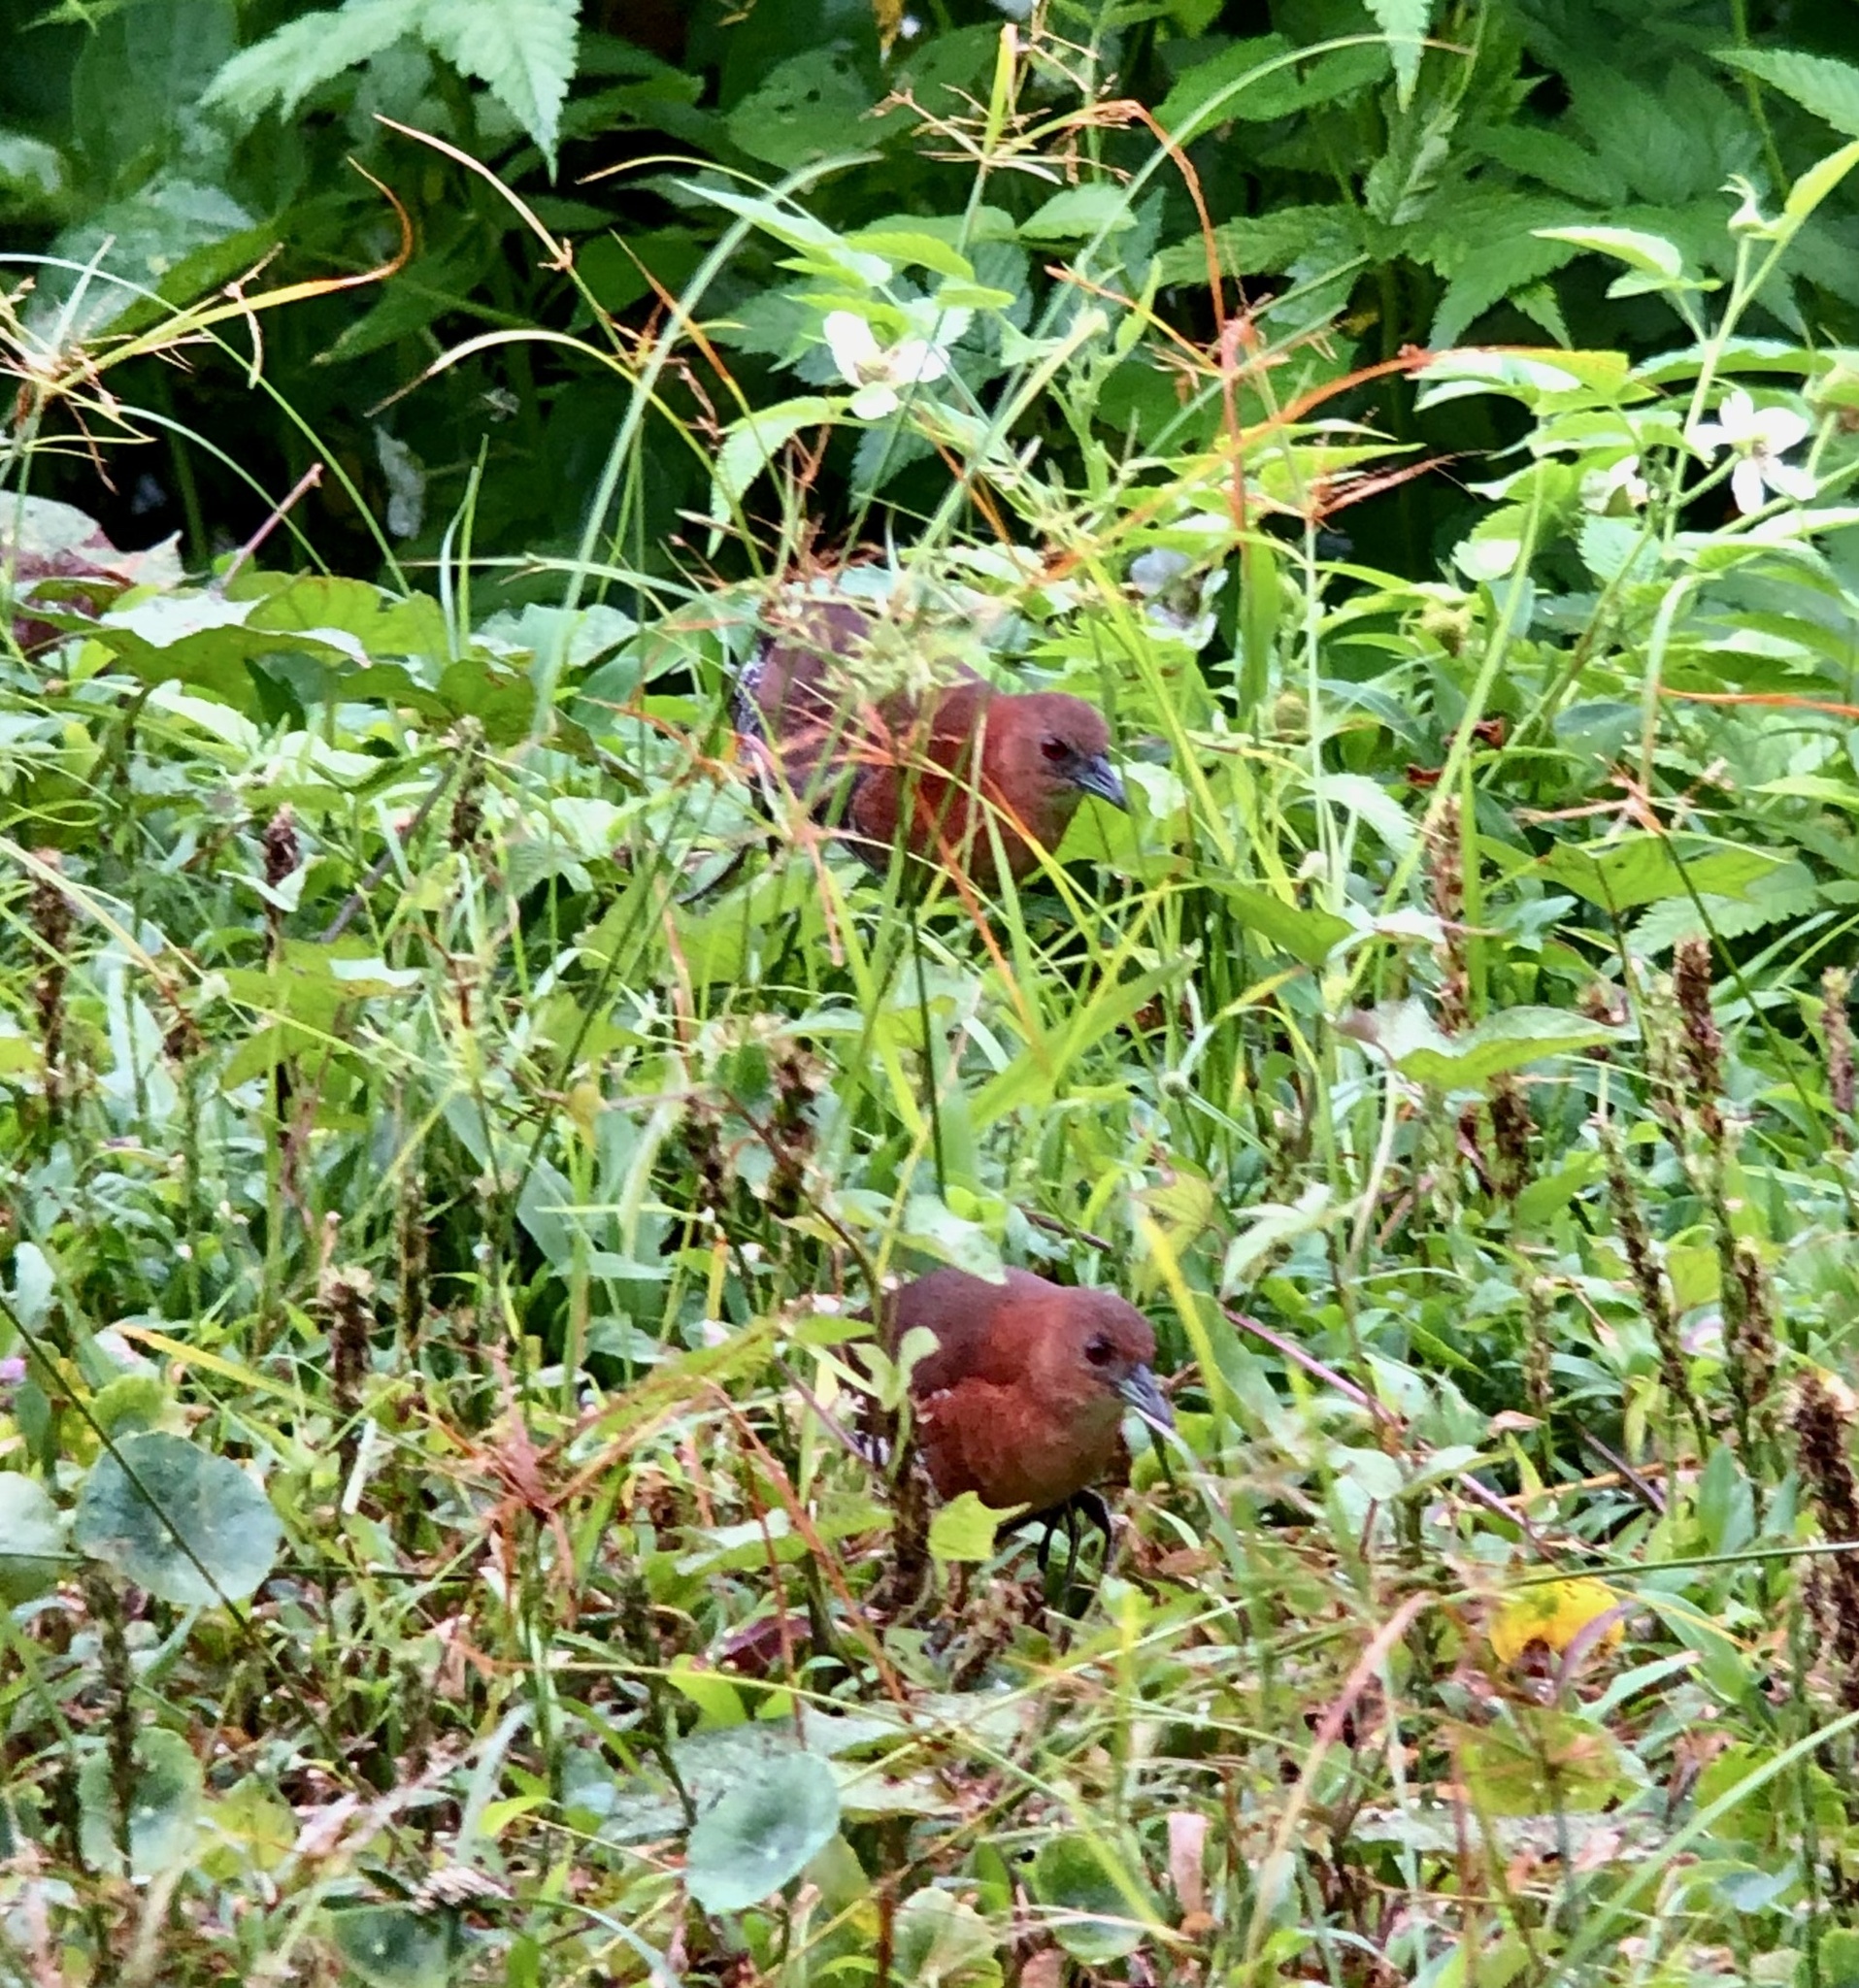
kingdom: Animalia
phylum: Chordata
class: Aves
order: Gruiformes
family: Rallidae
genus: Laterallus
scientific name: Laterallus albigularis
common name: White-throated crake
